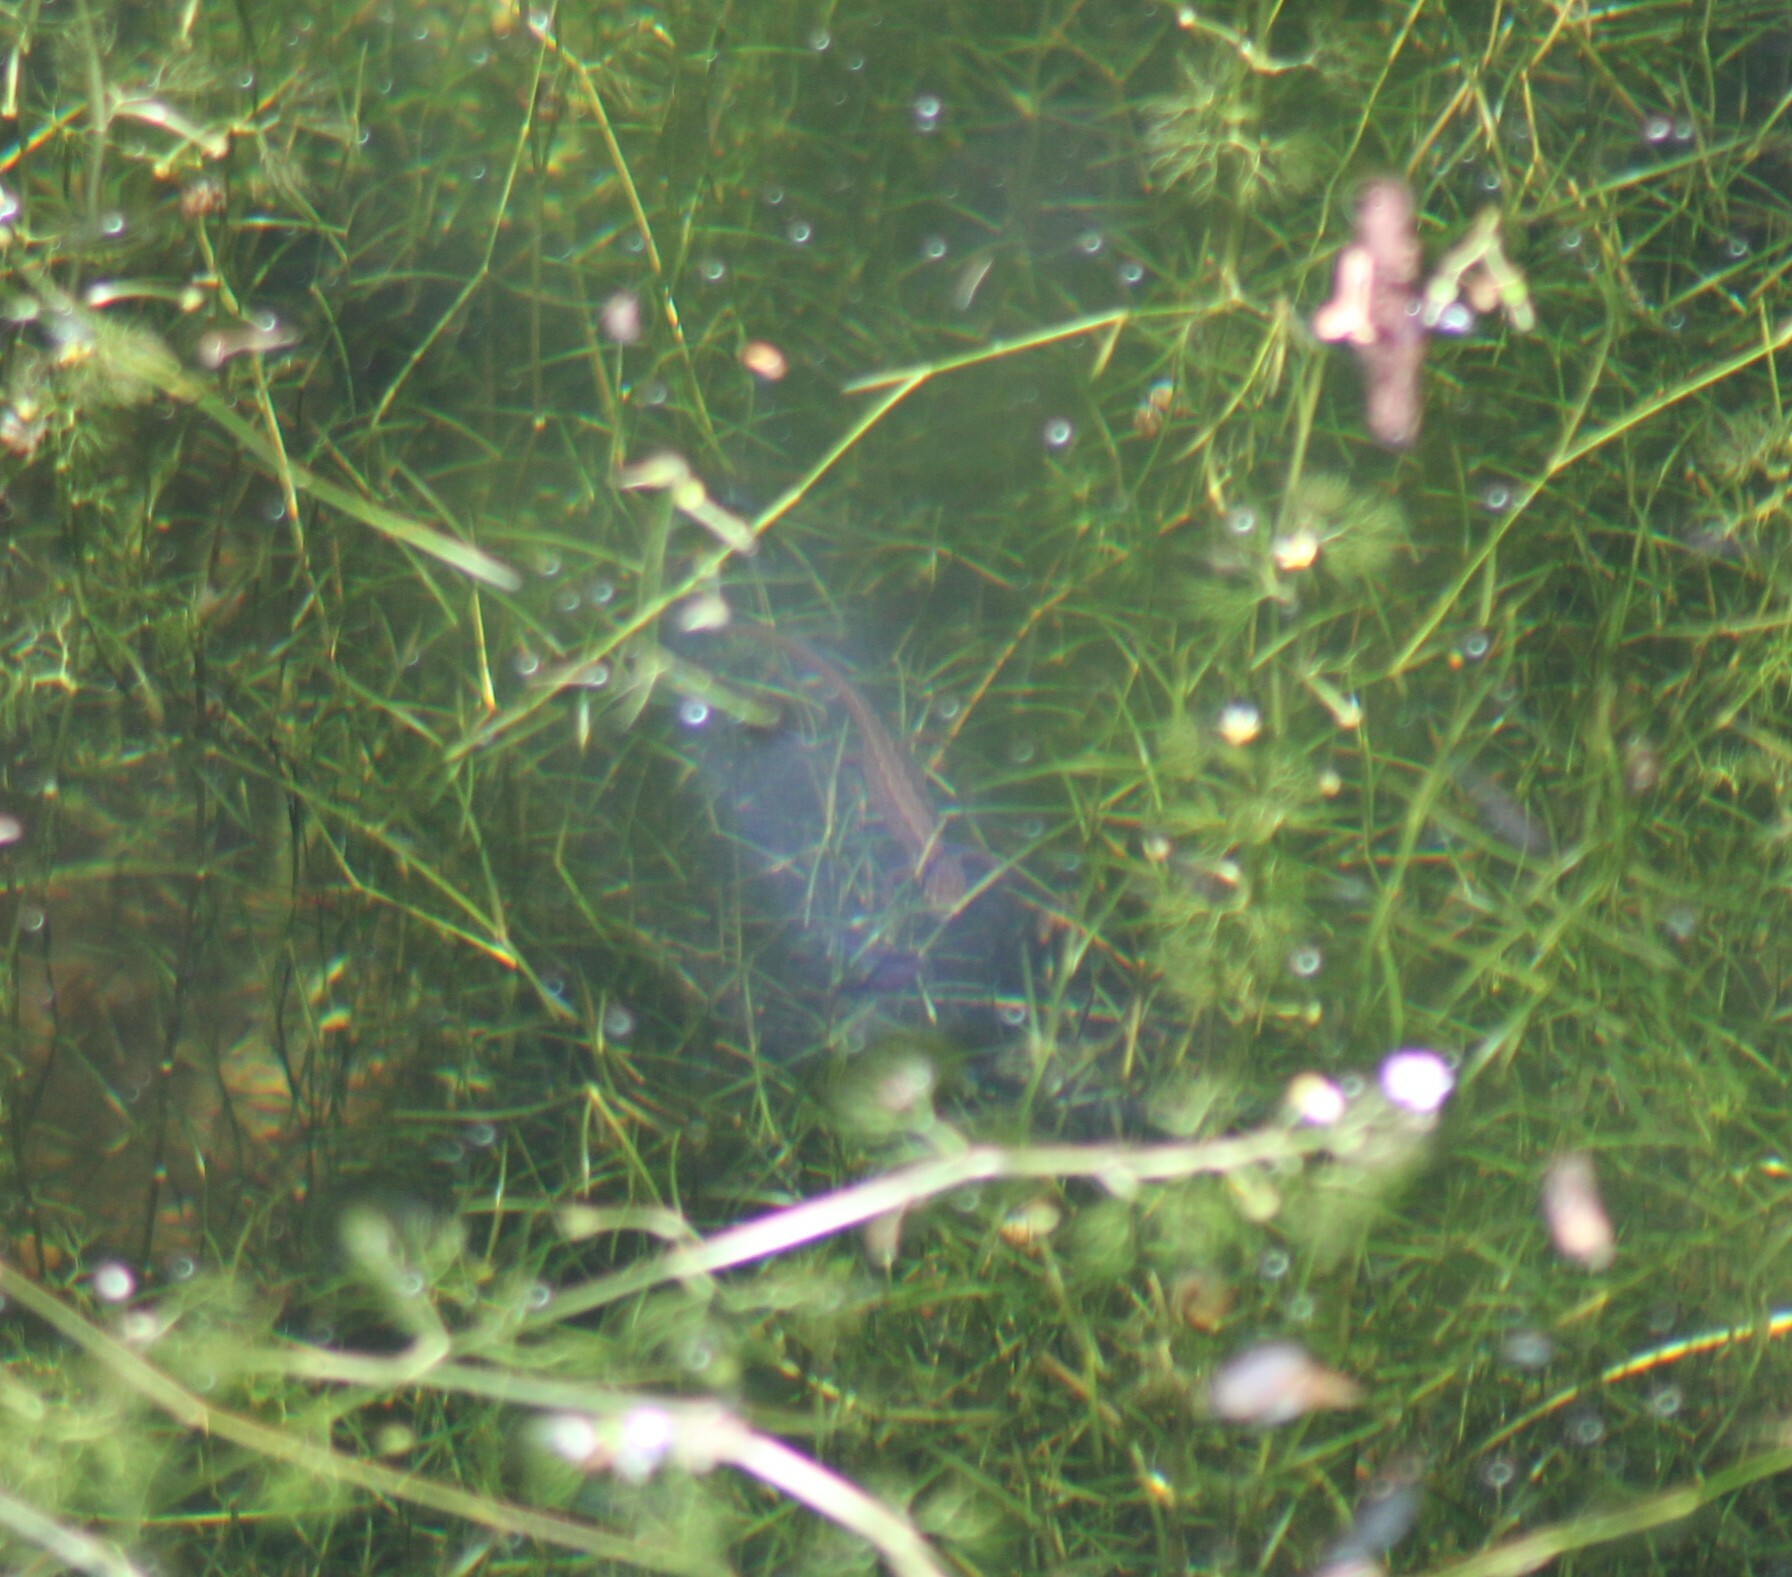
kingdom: Animalia
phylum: Chordata
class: Amphibia
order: Caudata
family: Salamandridae
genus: Lissotriton
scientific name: Lissotriton vulgaris
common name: Smooth newt
